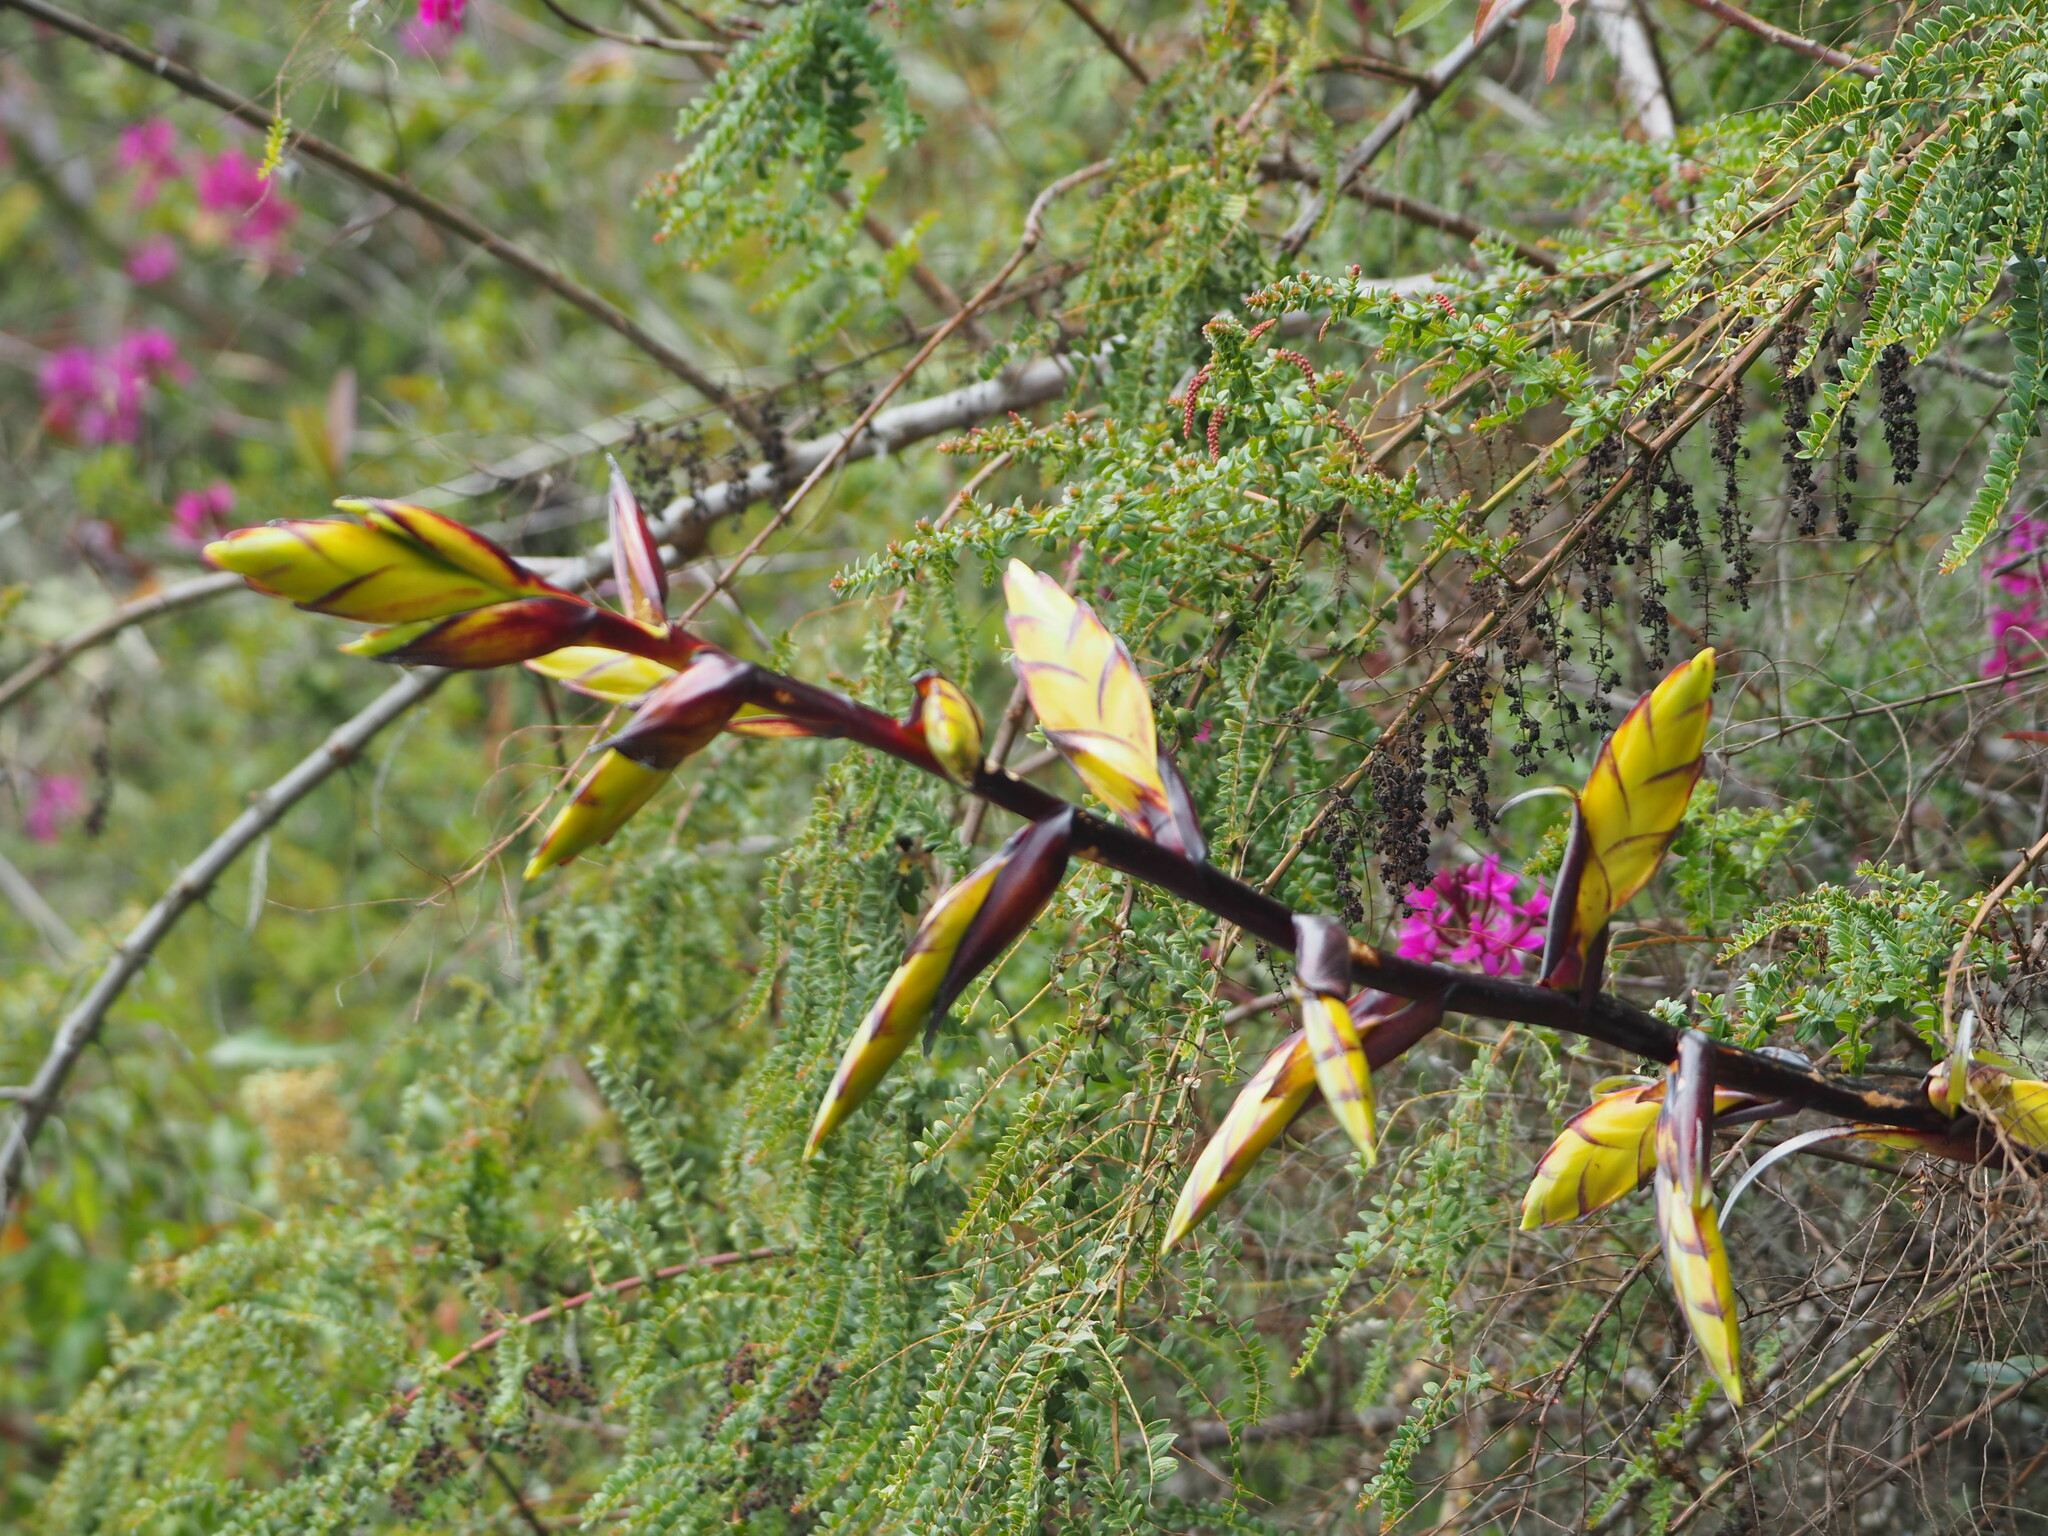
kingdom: Plantae
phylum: Tracheophyta
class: Liliopsida
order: Poales
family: Bromeliaceae
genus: Tillandsia
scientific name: Tillandsia lajensis
